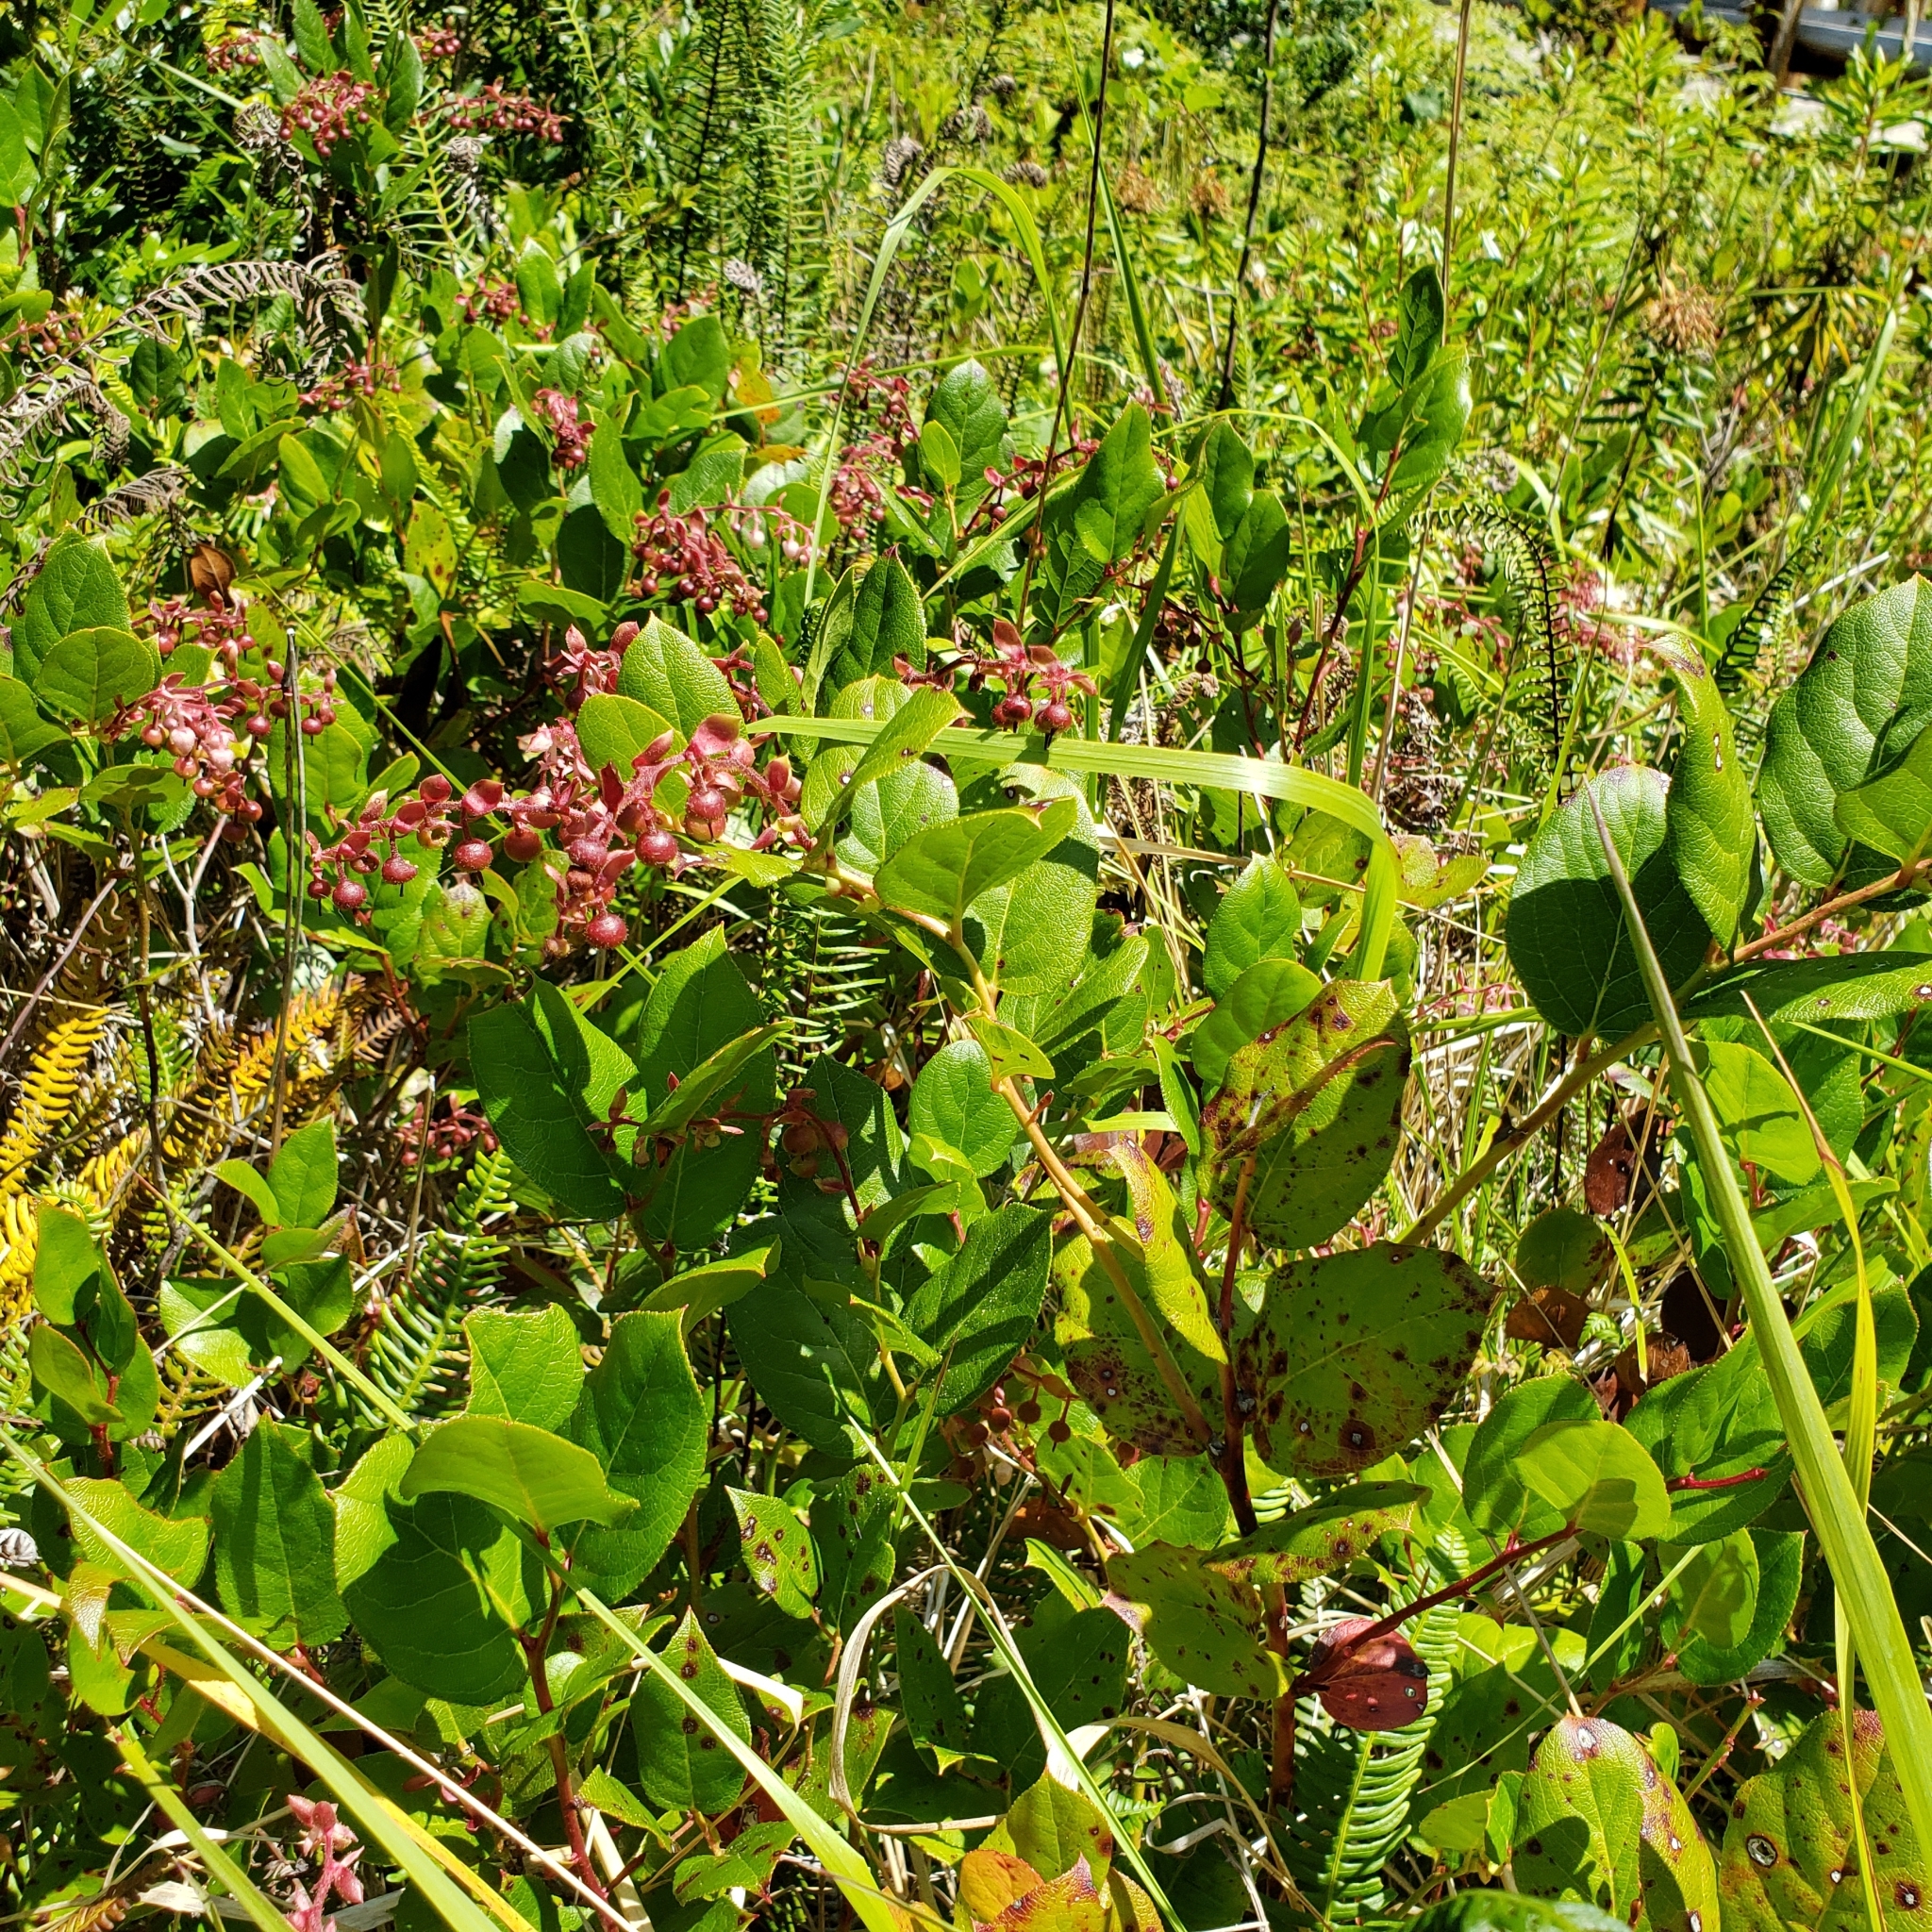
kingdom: Plantae
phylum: Tracheophyta
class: Magnoliopsida
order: Ericales
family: Ericaceae
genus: Gaultheria
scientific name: Gaultheria shallon
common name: Shallon
